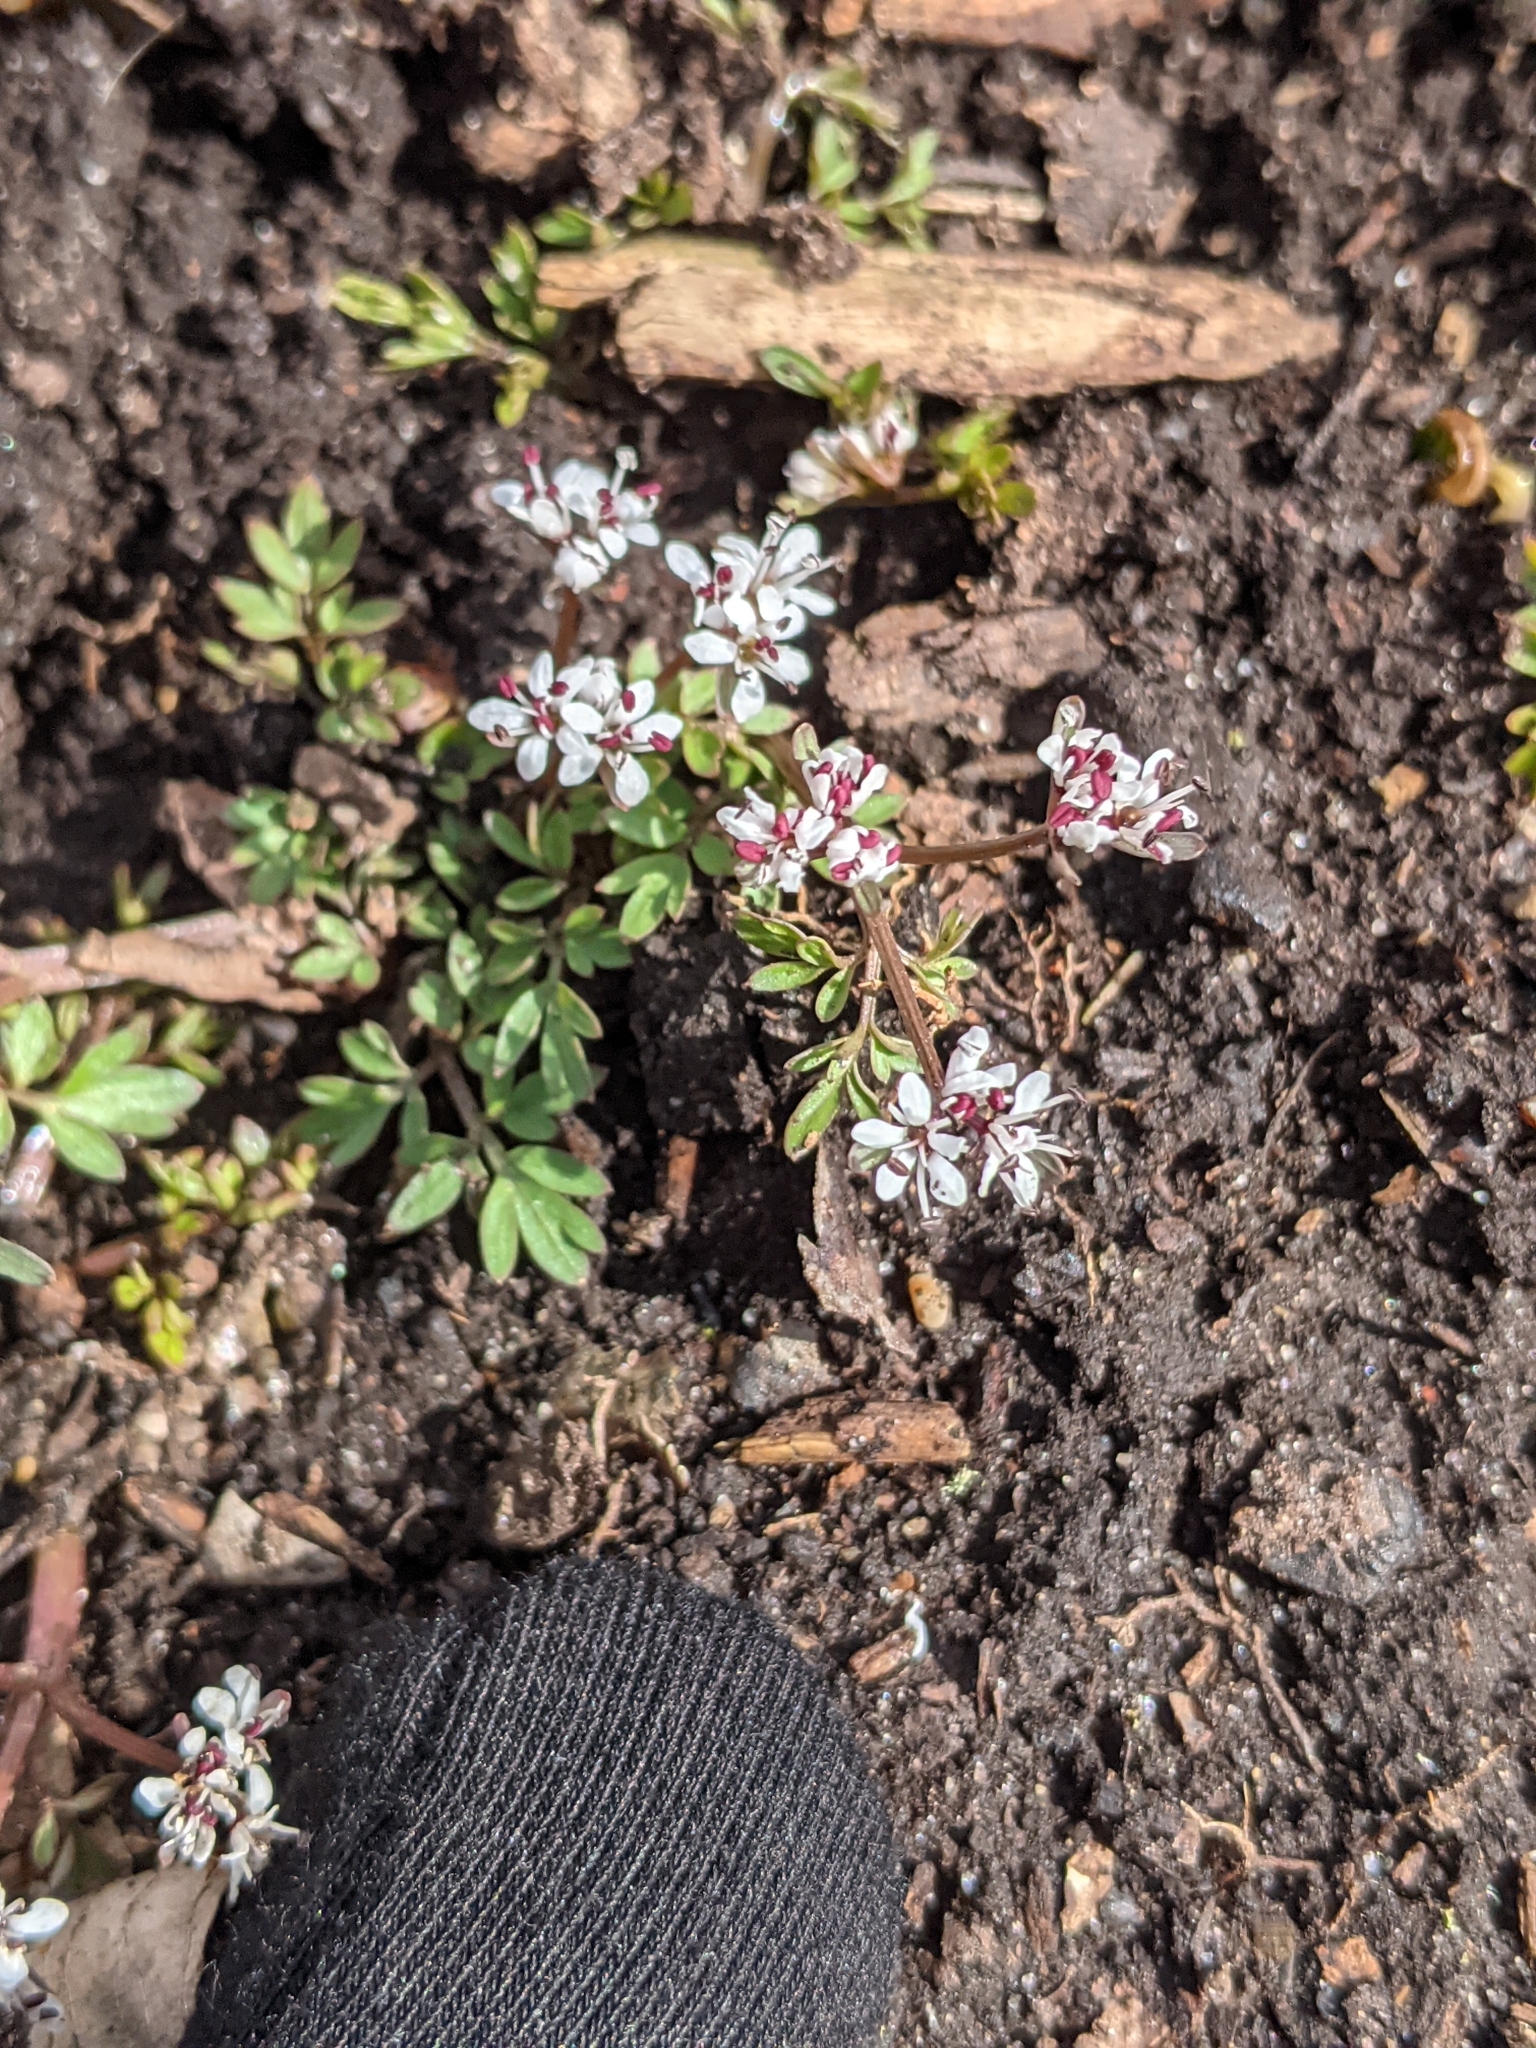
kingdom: Plantae
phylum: Tracheophyta
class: Magnoliopsida
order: Apiales
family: Apiaceae
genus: Erigenia
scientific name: Erigenia bulbosa
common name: Pepper-and-salt
